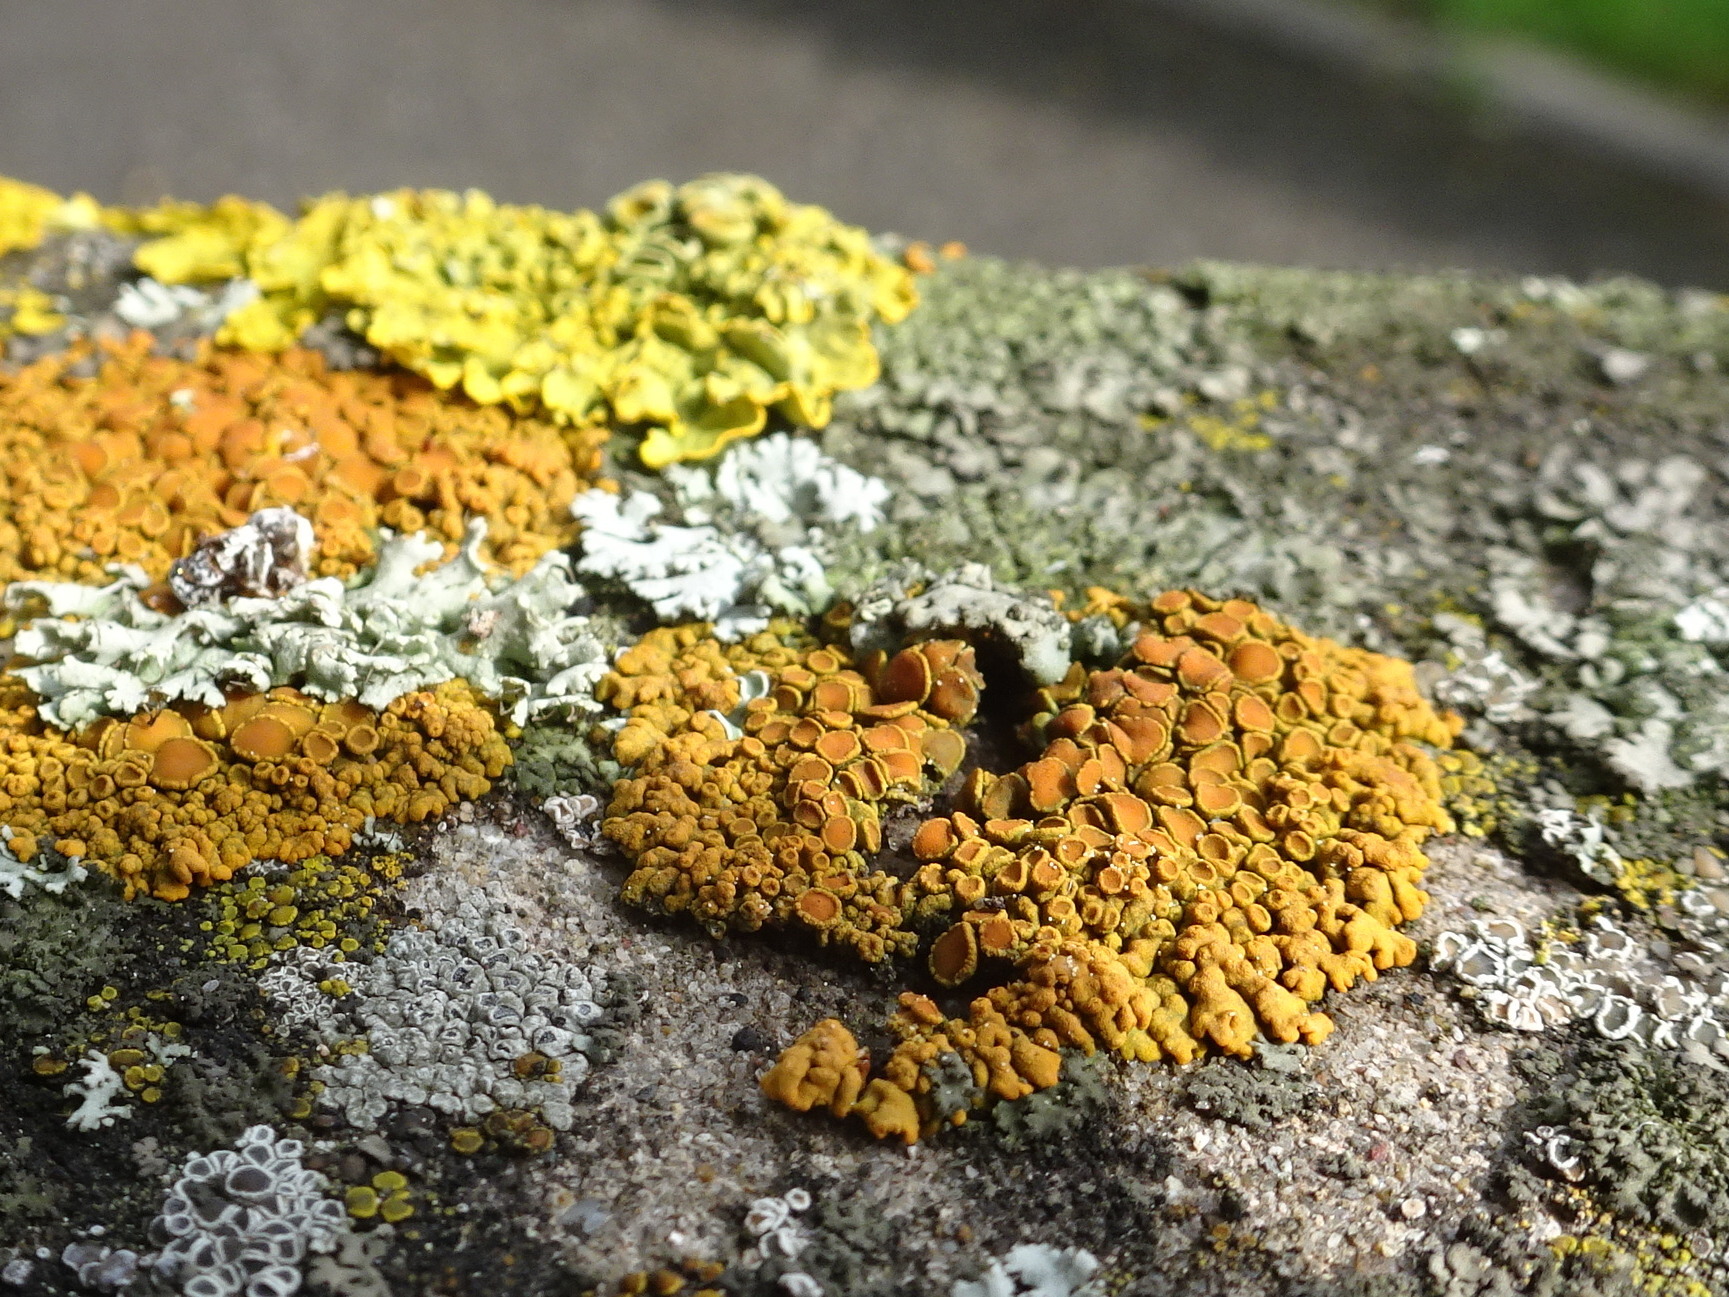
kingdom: Fungi
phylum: Ascomycota
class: Lecanoromycetes
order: Teloschistales
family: Teloschistaceae
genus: Xanthoria
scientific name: Xanthoria elegans
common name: Elegant sunburst lichen
